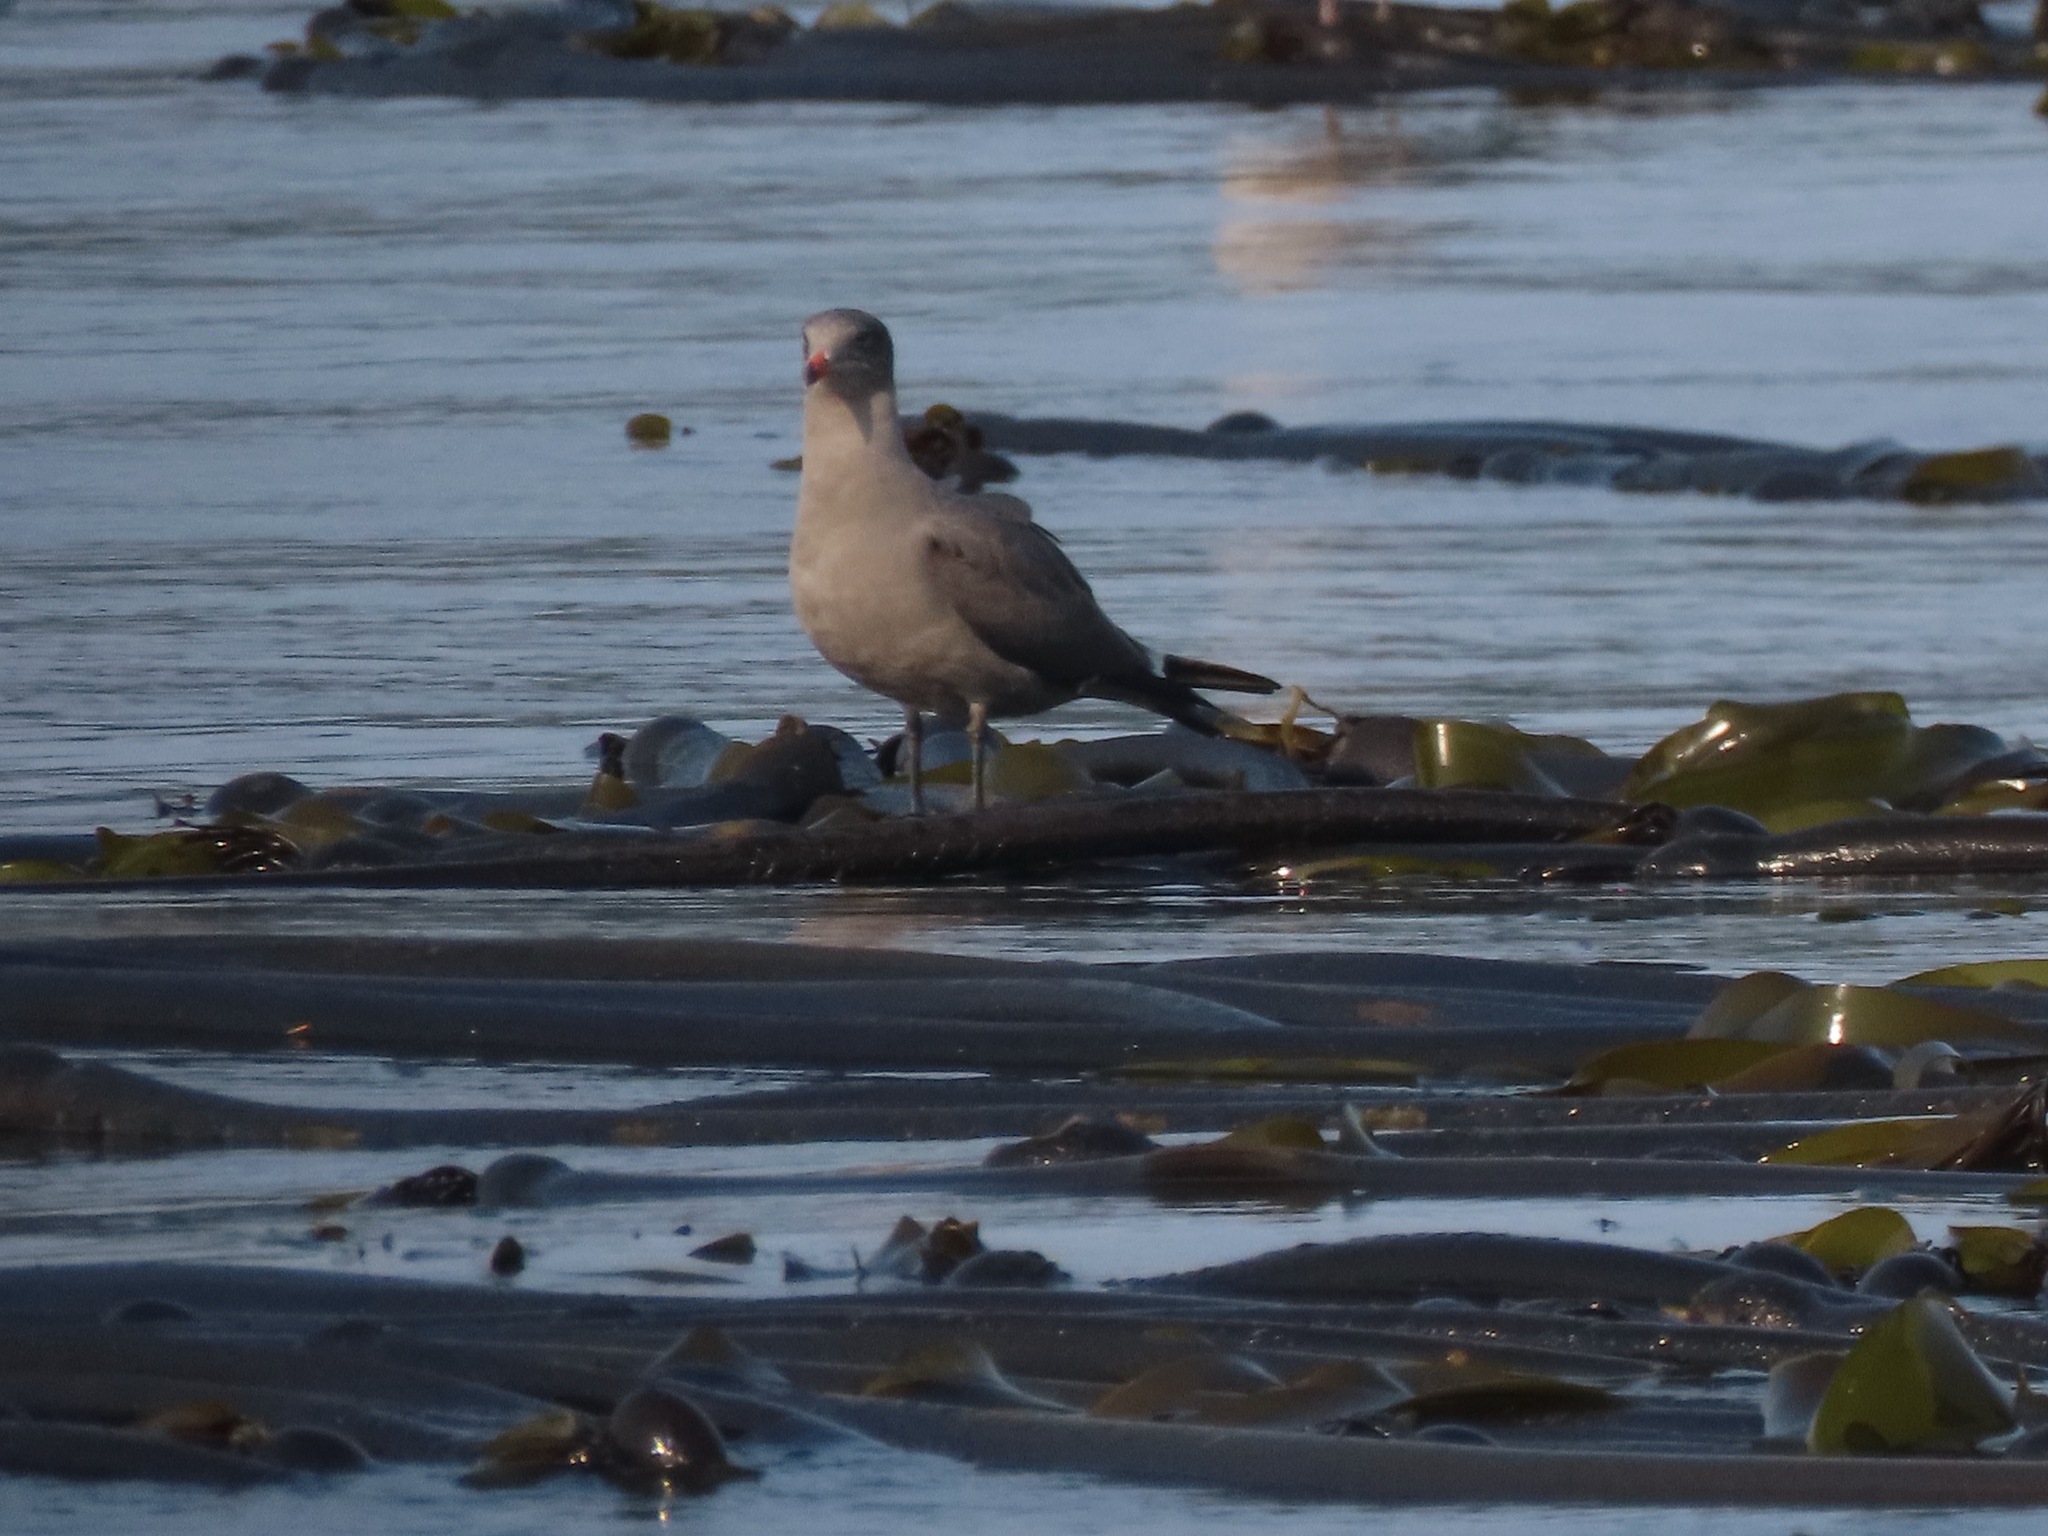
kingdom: Animalia
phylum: Chordata
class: Aves
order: Charadriiformes
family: Laridae
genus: Larus
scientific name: Larus heermanni
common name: Heermann's gull
